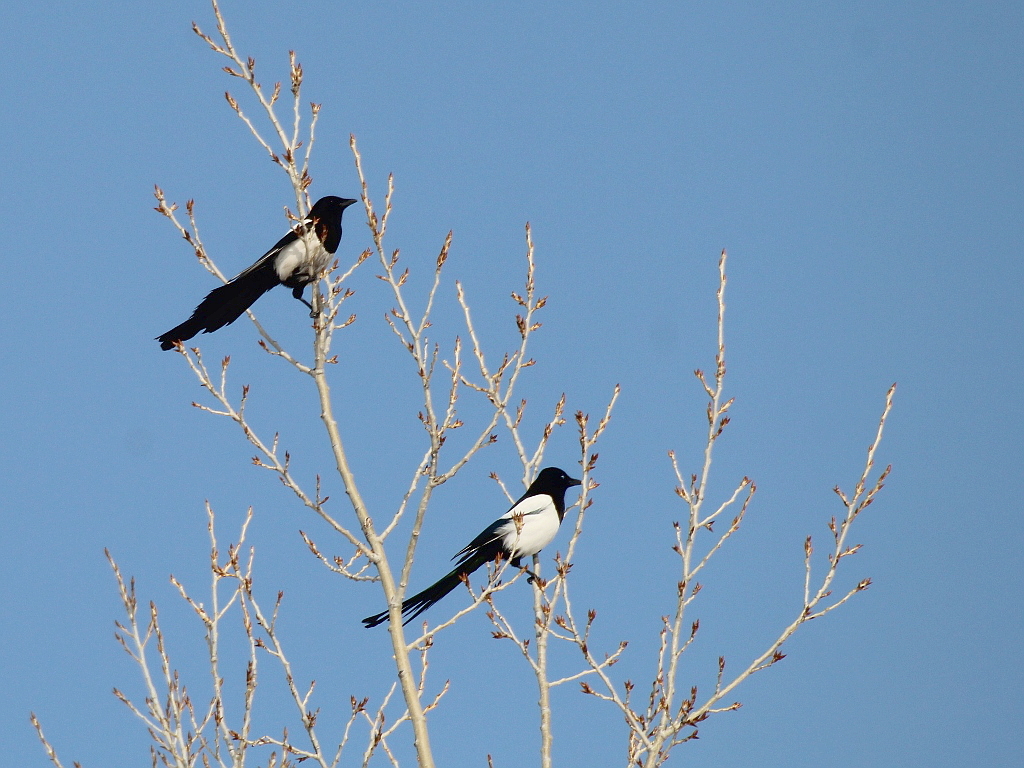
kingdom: Animalia
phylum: Chordata
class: Aves
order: Passeriformes
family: Corvidae
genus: Pica
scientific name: Pica pica
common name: Eurasian magpie
